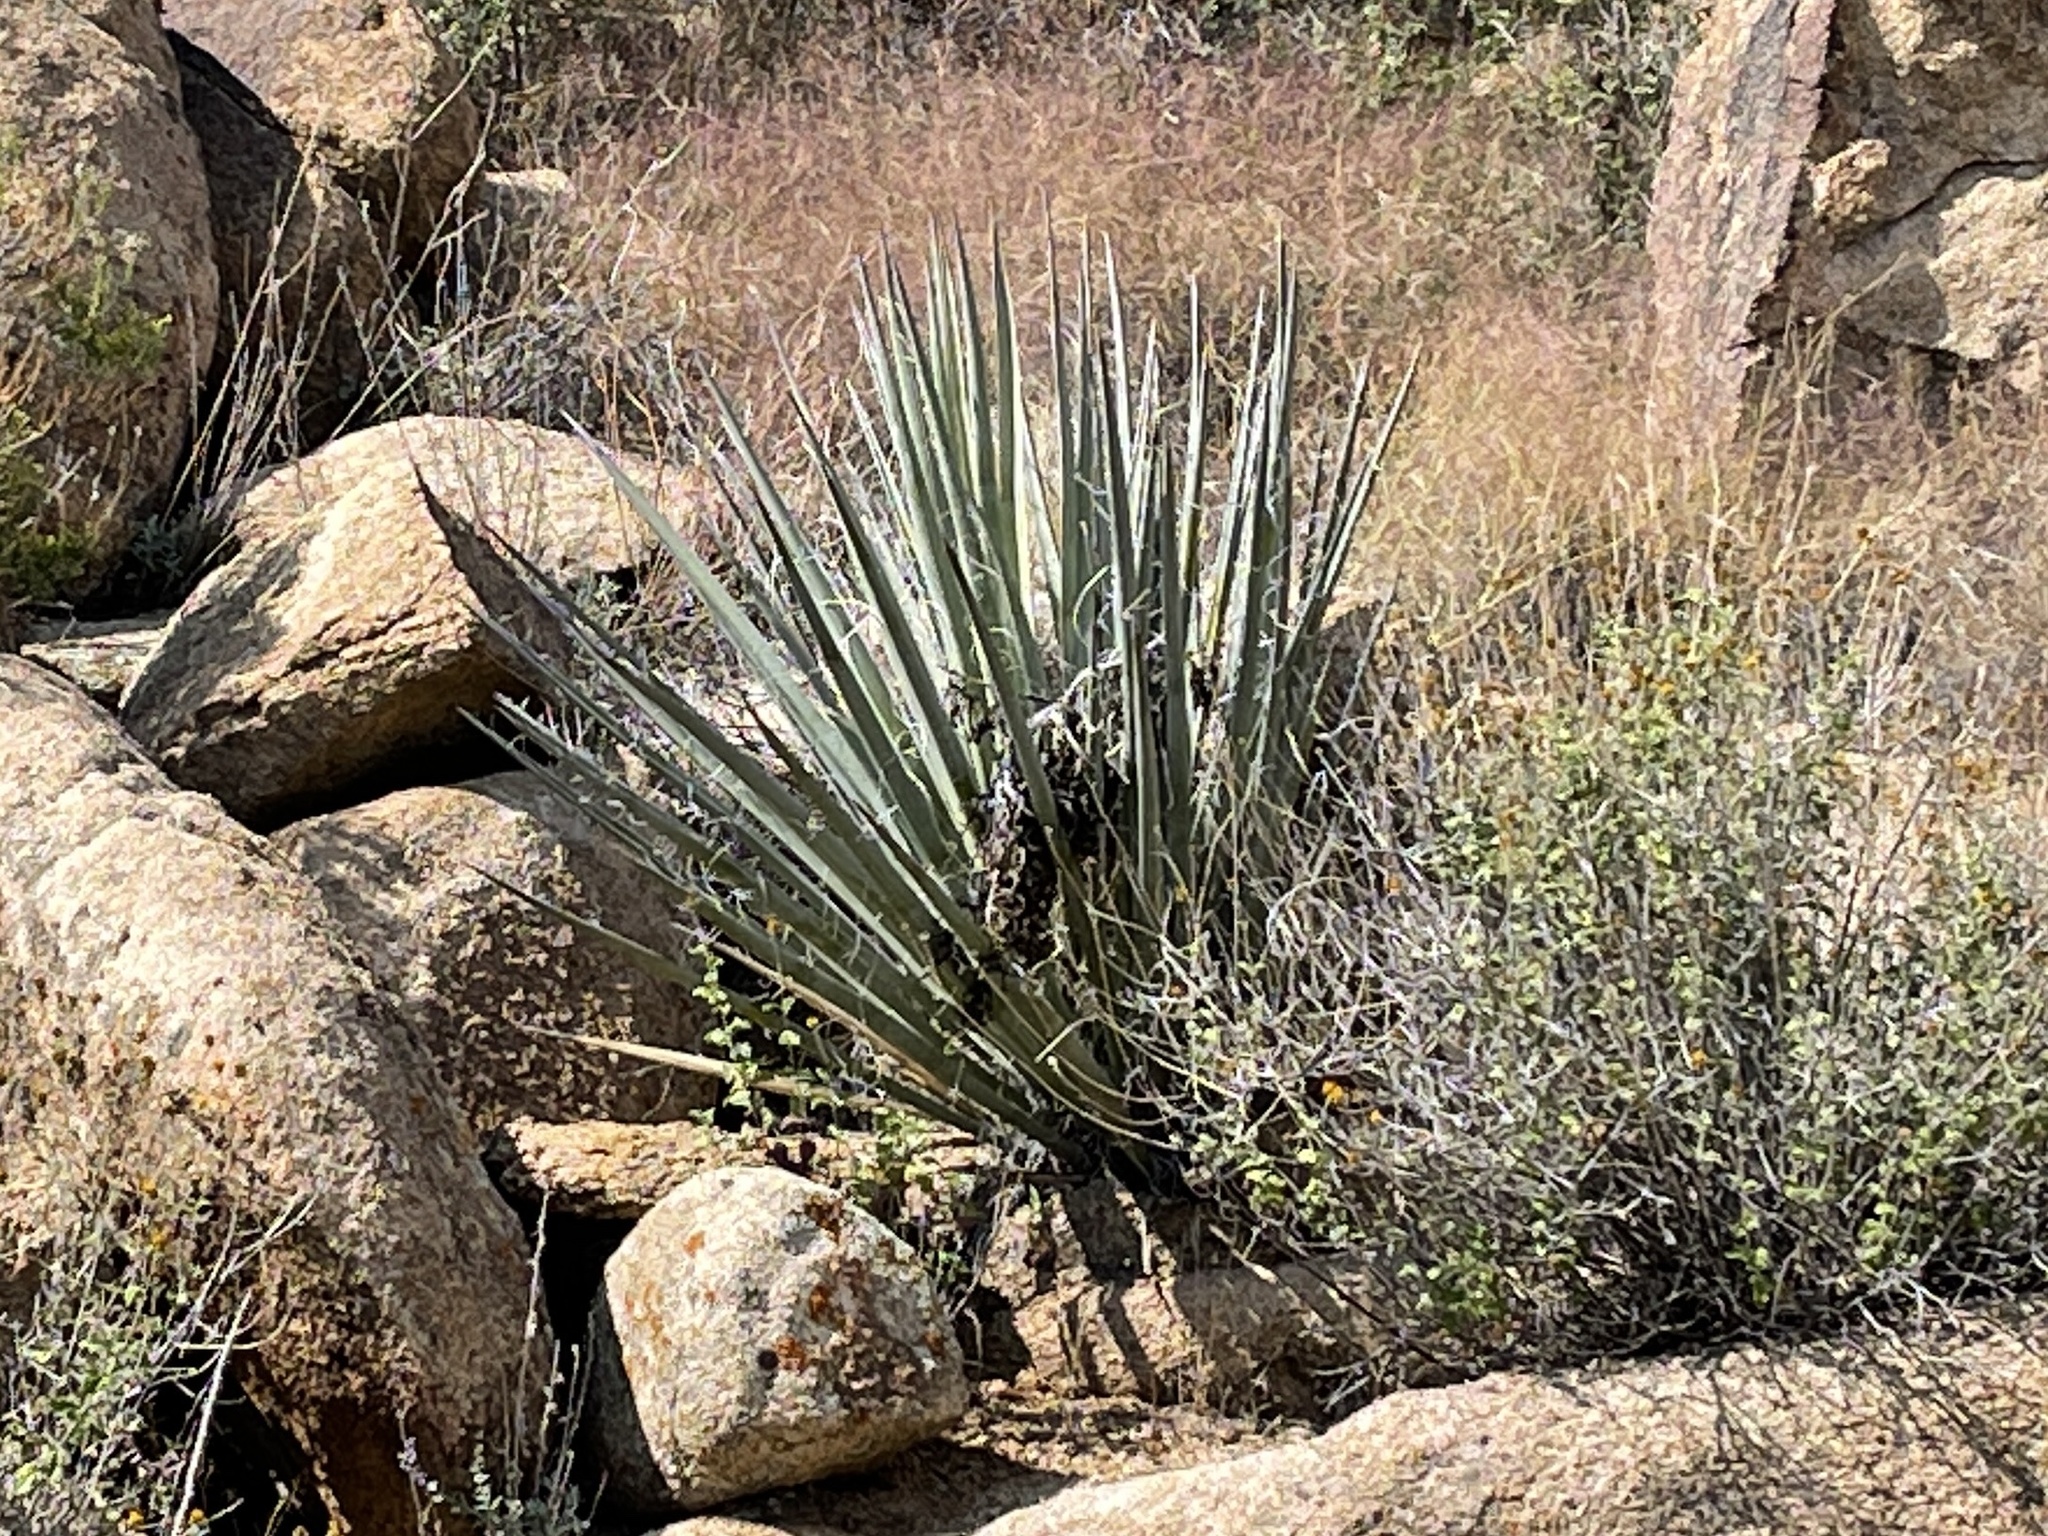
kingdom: Plantae
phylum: Tracheophyta
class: Liliopsida
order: Asparagales
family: Asparagaceae
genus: Yucca
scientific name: Yucca baccata
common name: Banana yucca
